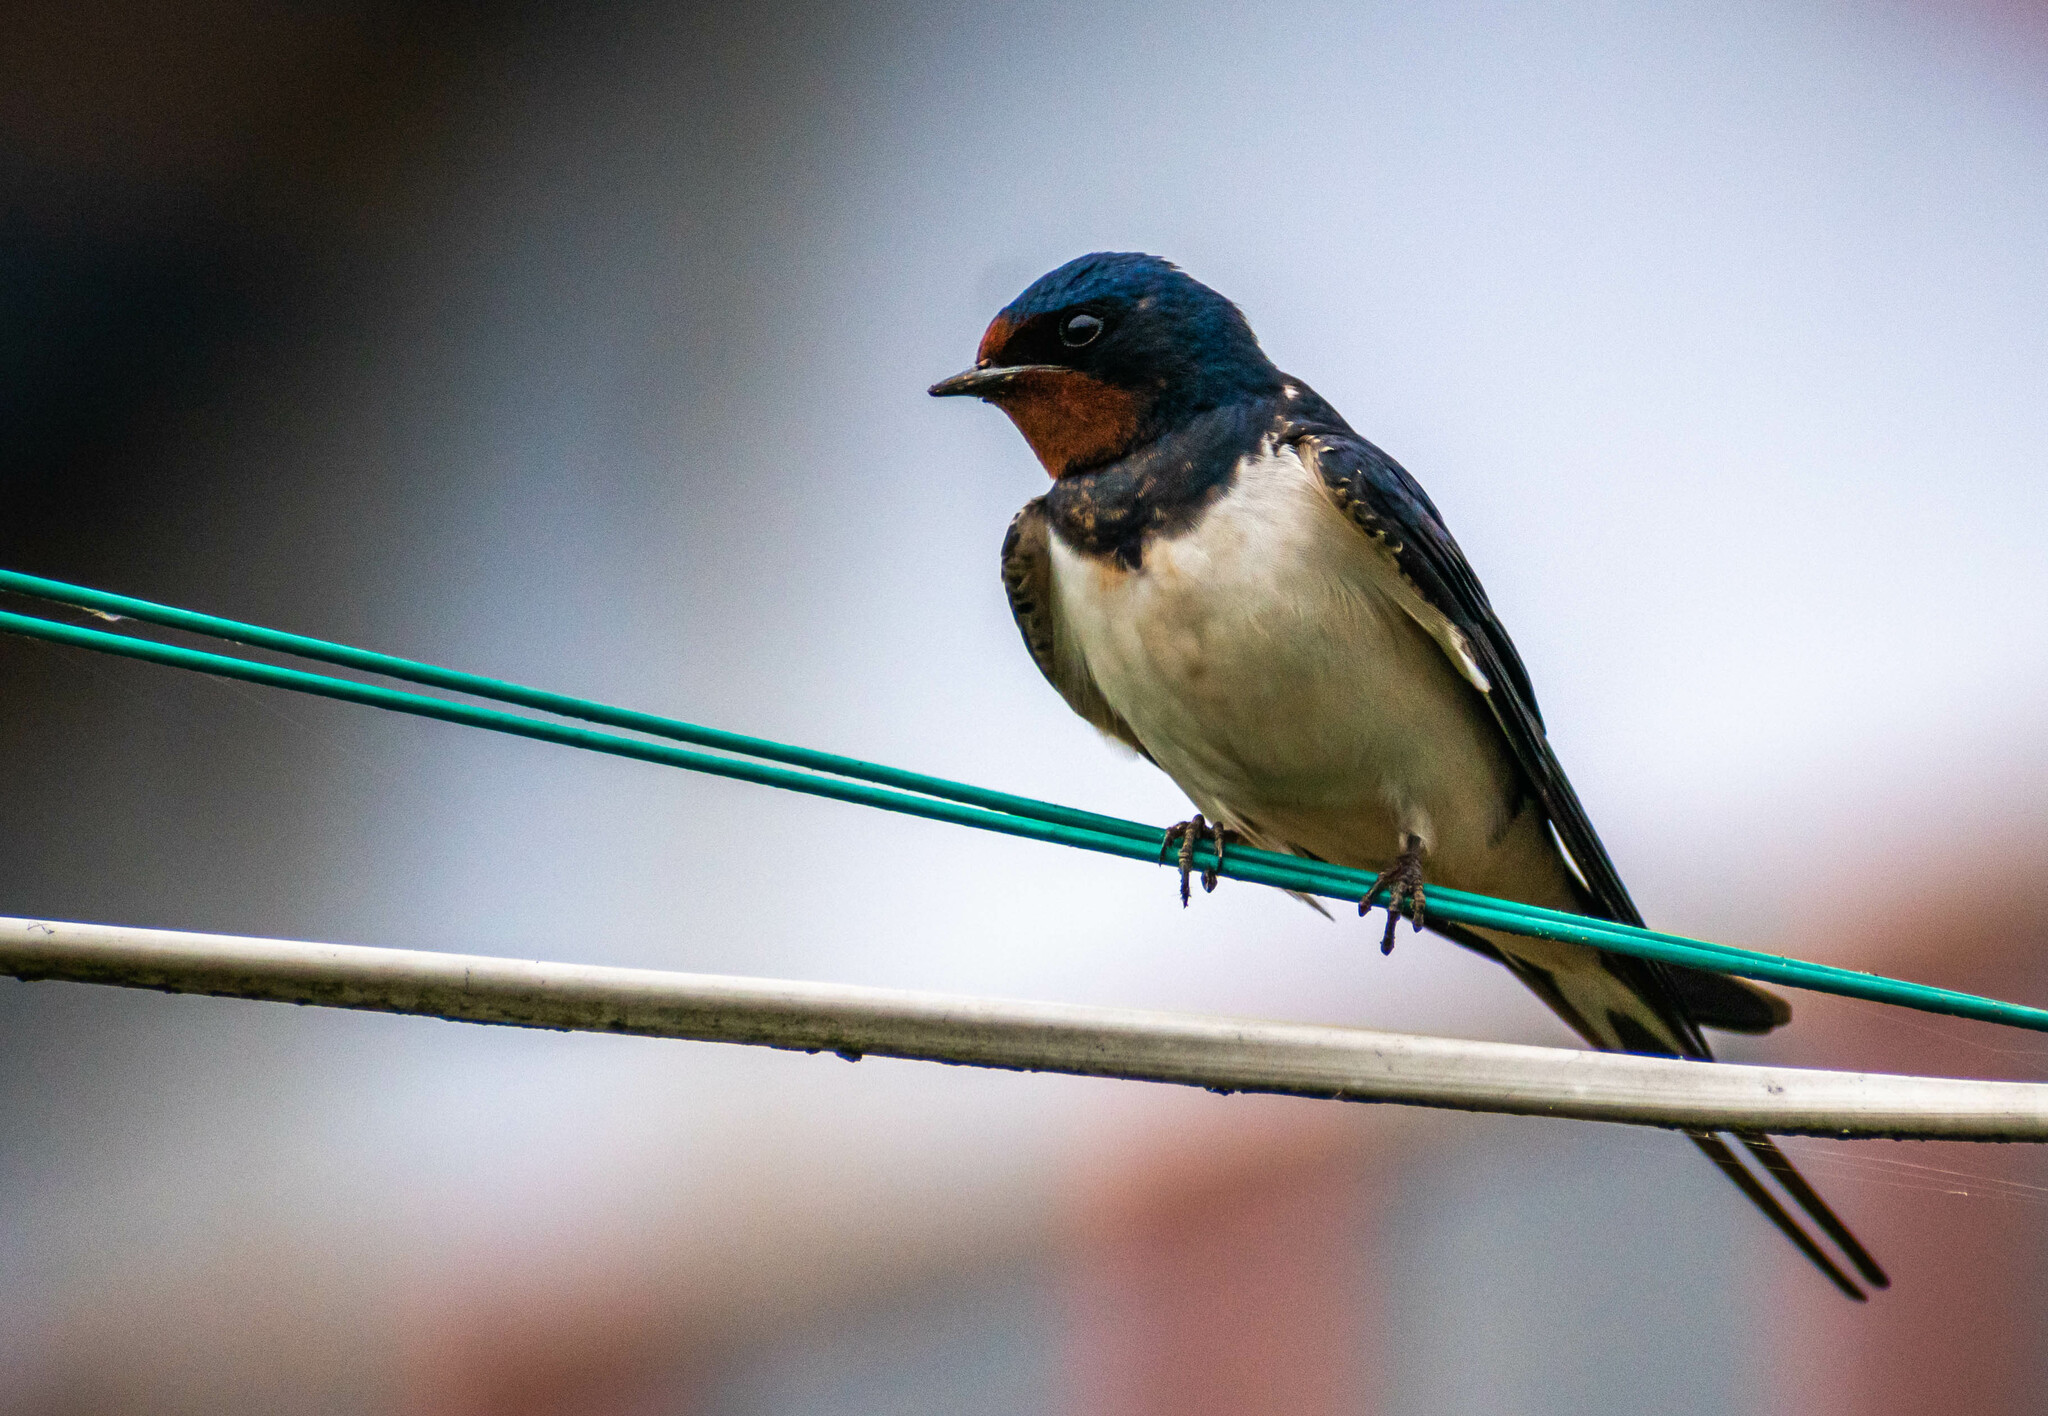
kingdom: Animalia
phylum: Chordata
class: Aves
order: Passeriformes
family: Hirundinidae
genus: Hirundo
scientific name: Hirundo rustica
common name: Barn swallow
